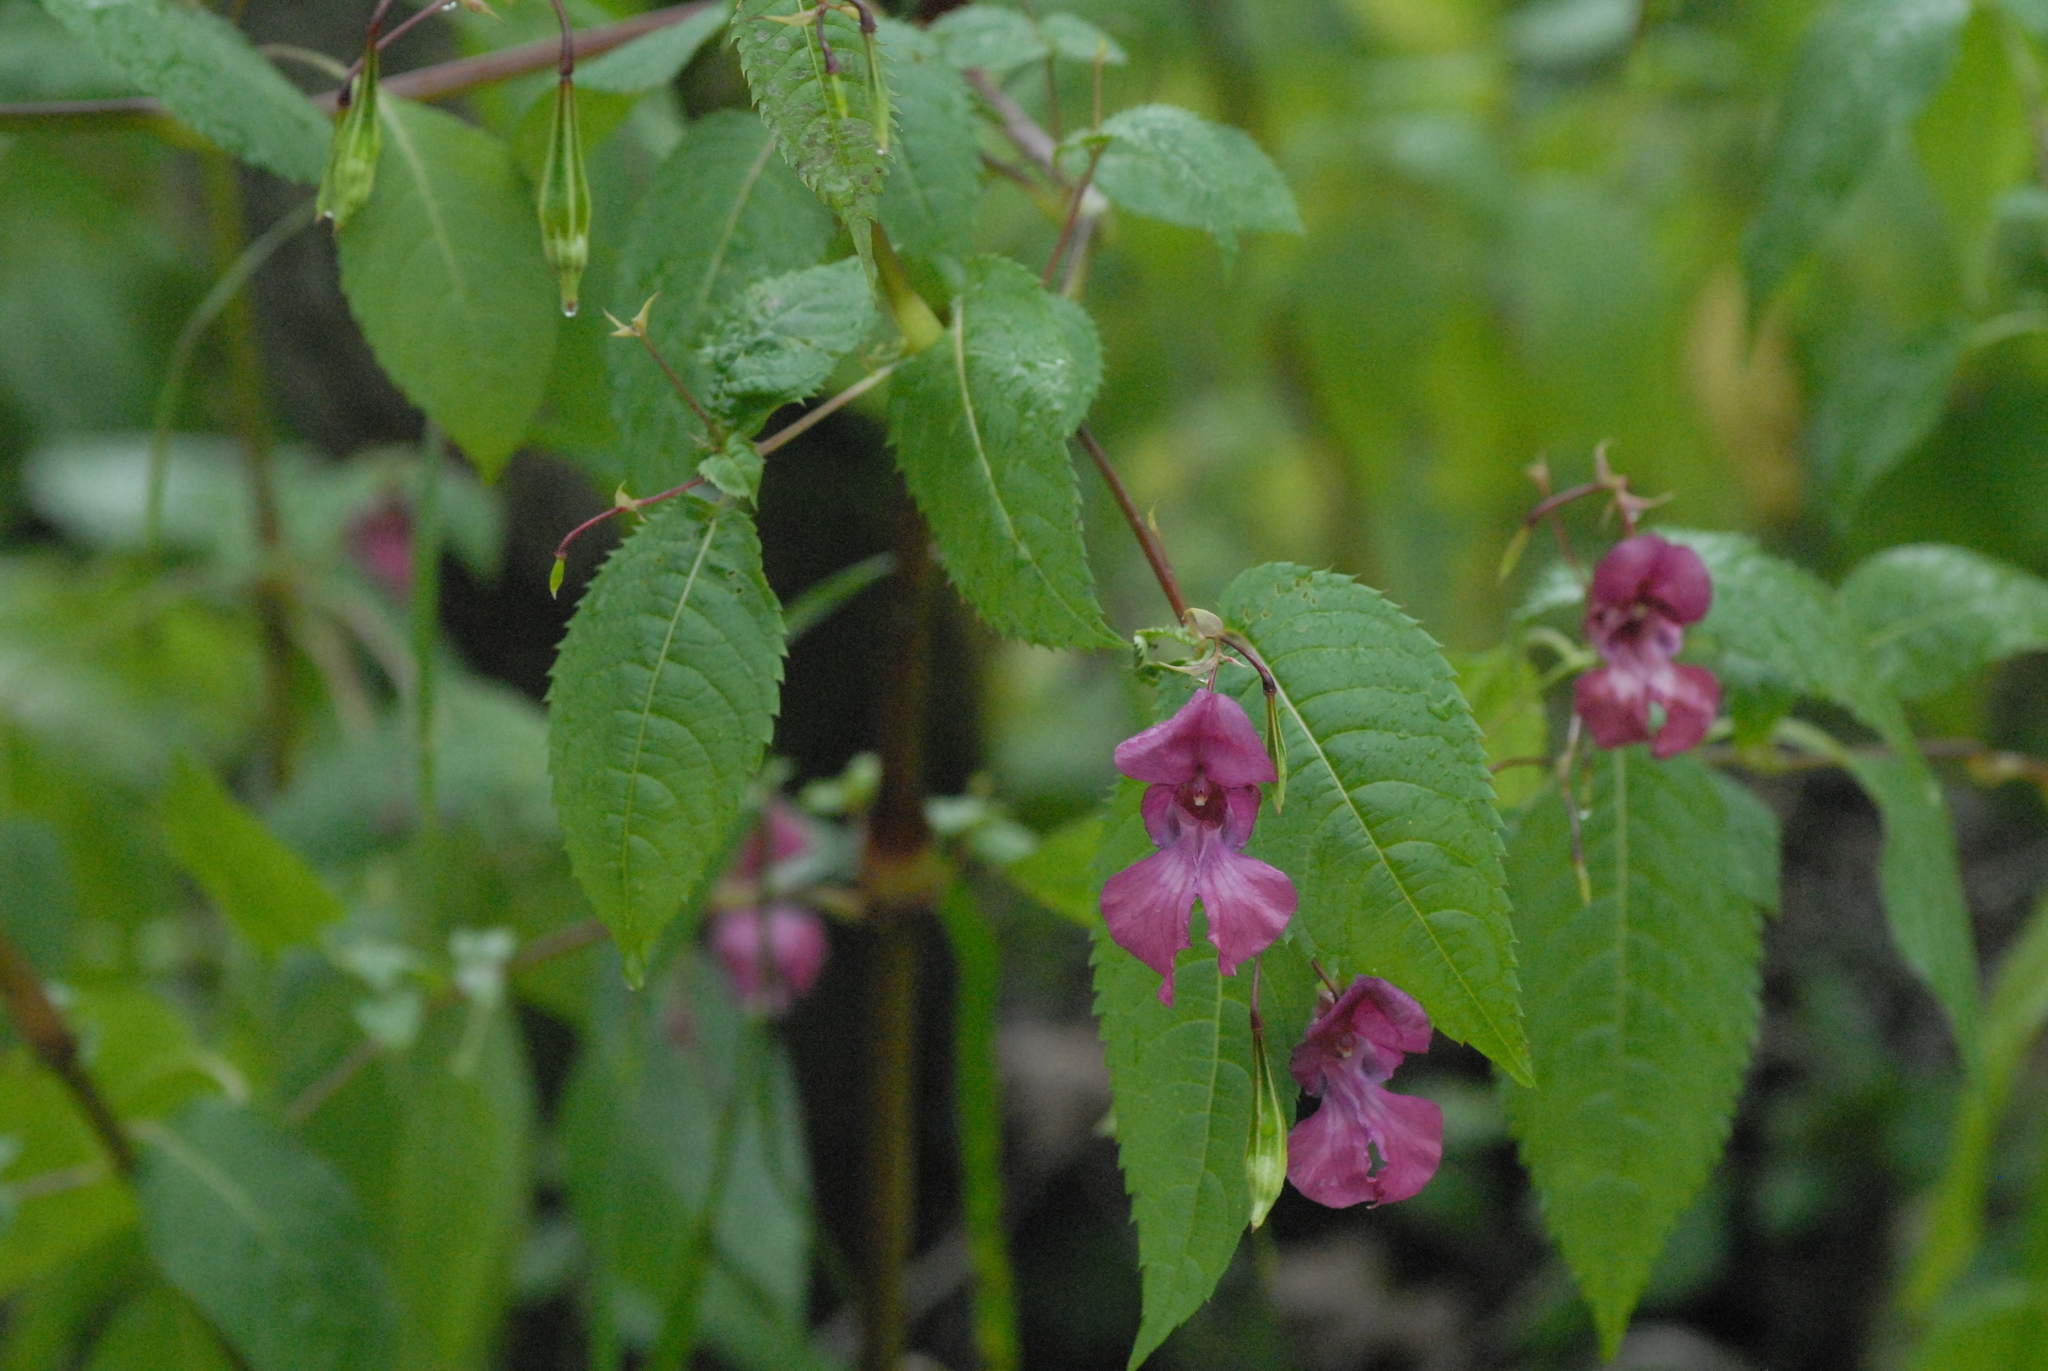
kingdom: Plantae
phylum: Tracheophyta
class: Magnoliopsida
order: Ericales
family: Balsaminaceae
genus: Impatiens
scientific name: Impatiens glandulifera
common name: Himalayan balsam
